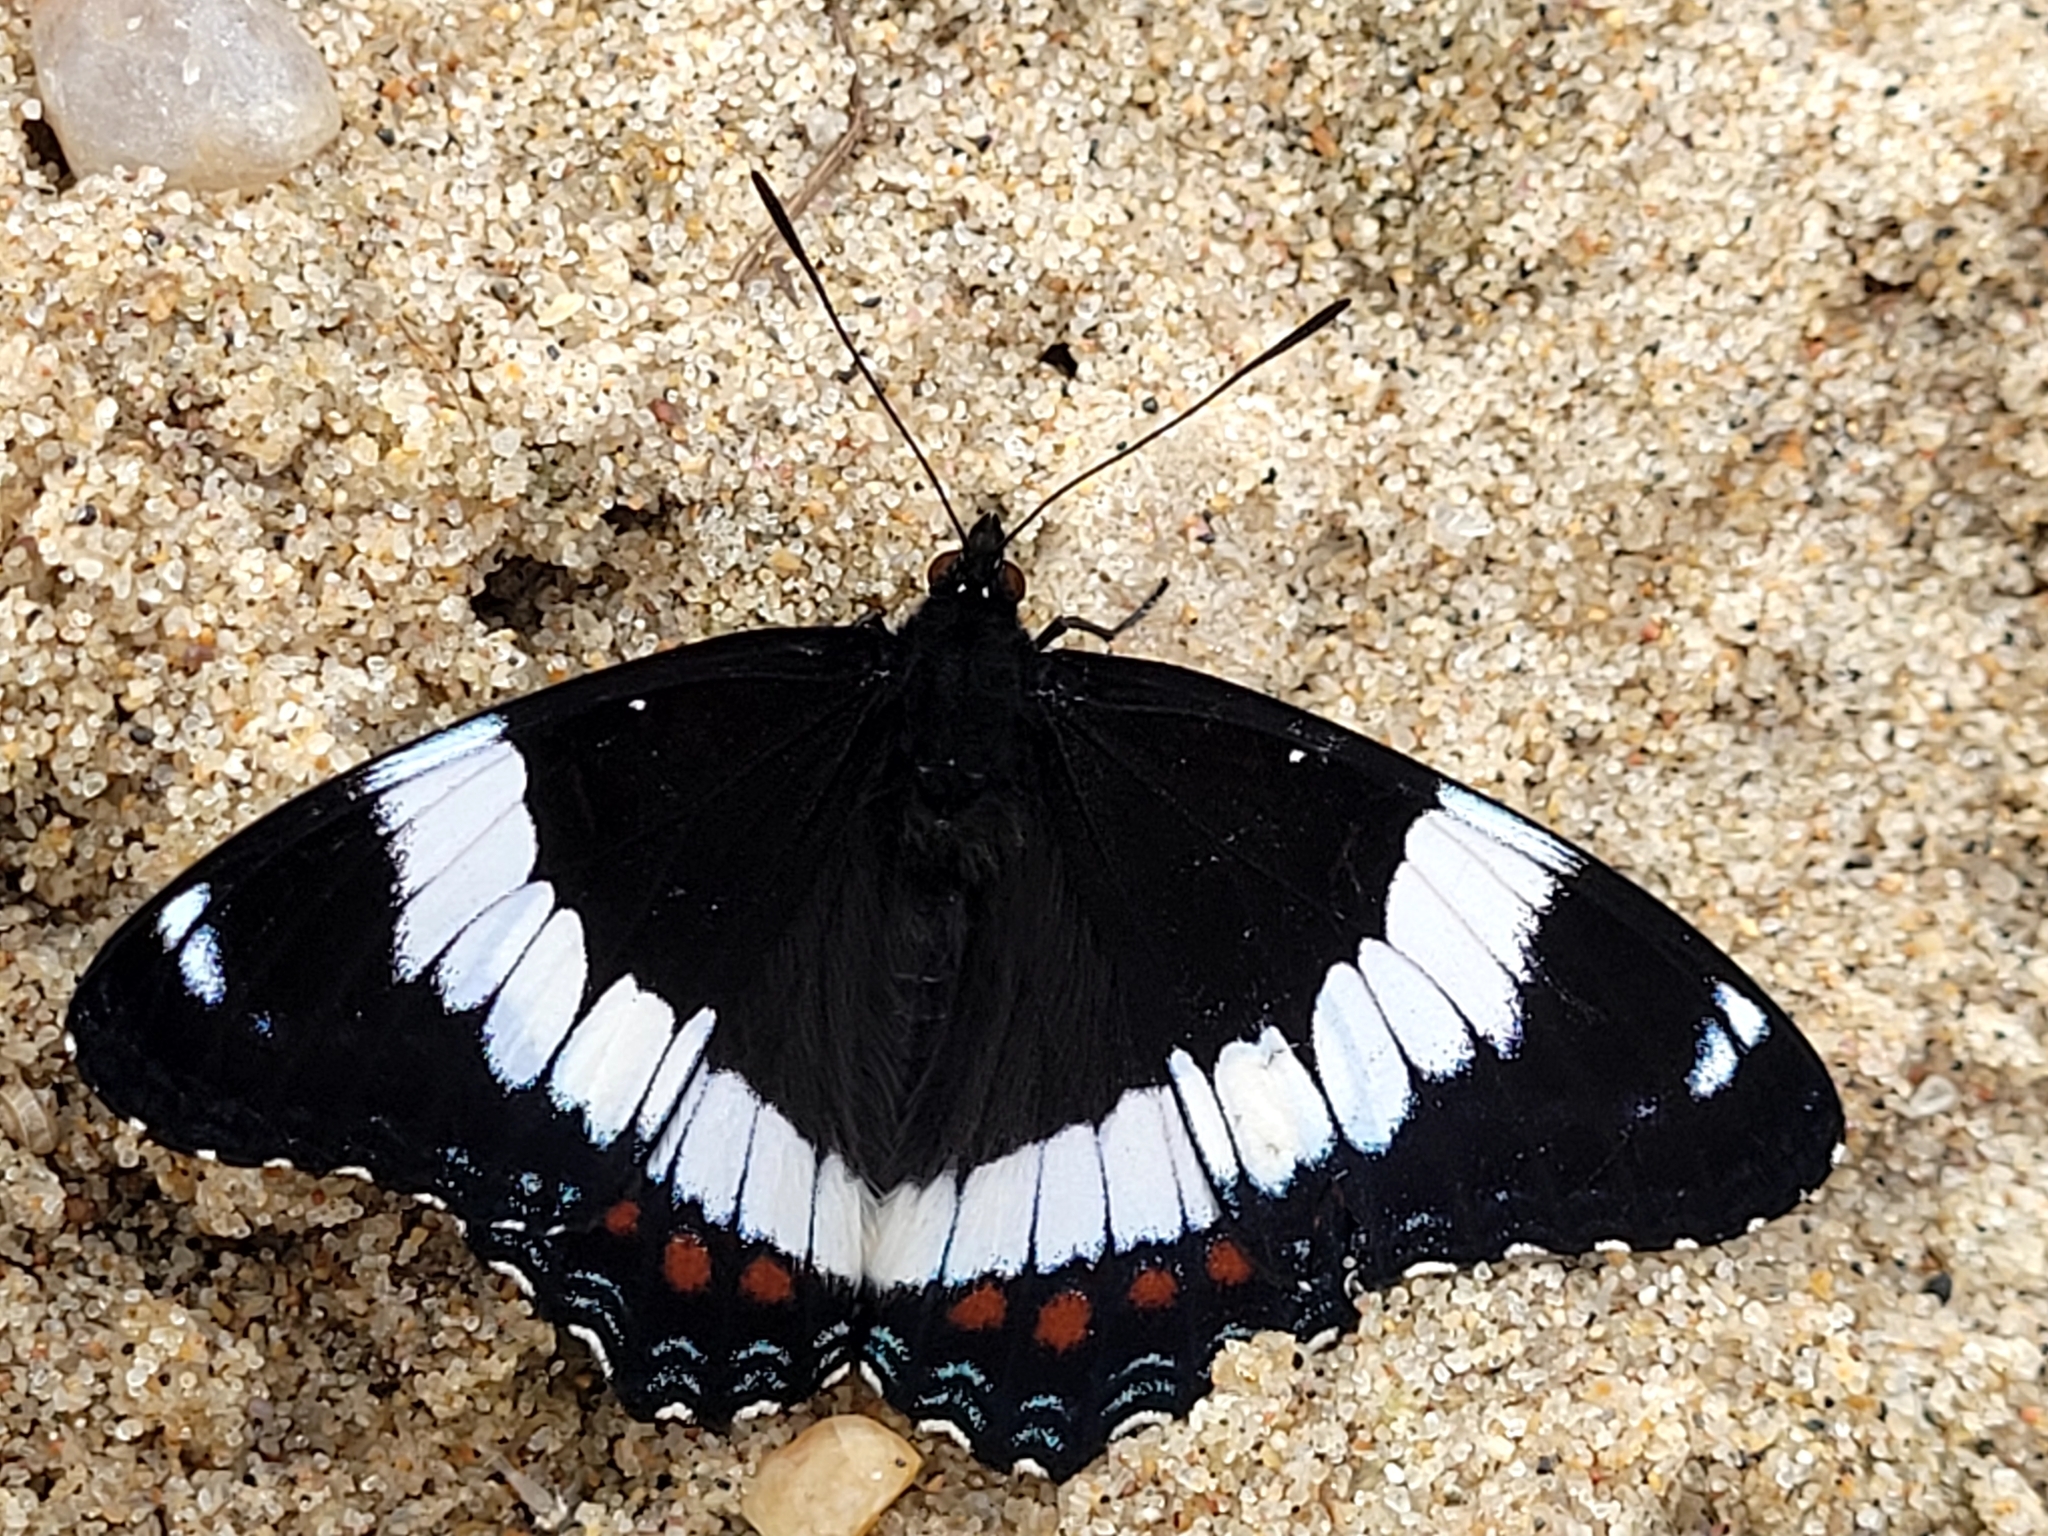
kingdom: Animalia
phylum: Arthropoda
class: Insecta
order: Lepidoptera
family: Nymphalidae
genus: Limenitis
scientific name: Limenitis arthemis
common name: Red-spotted admiral
